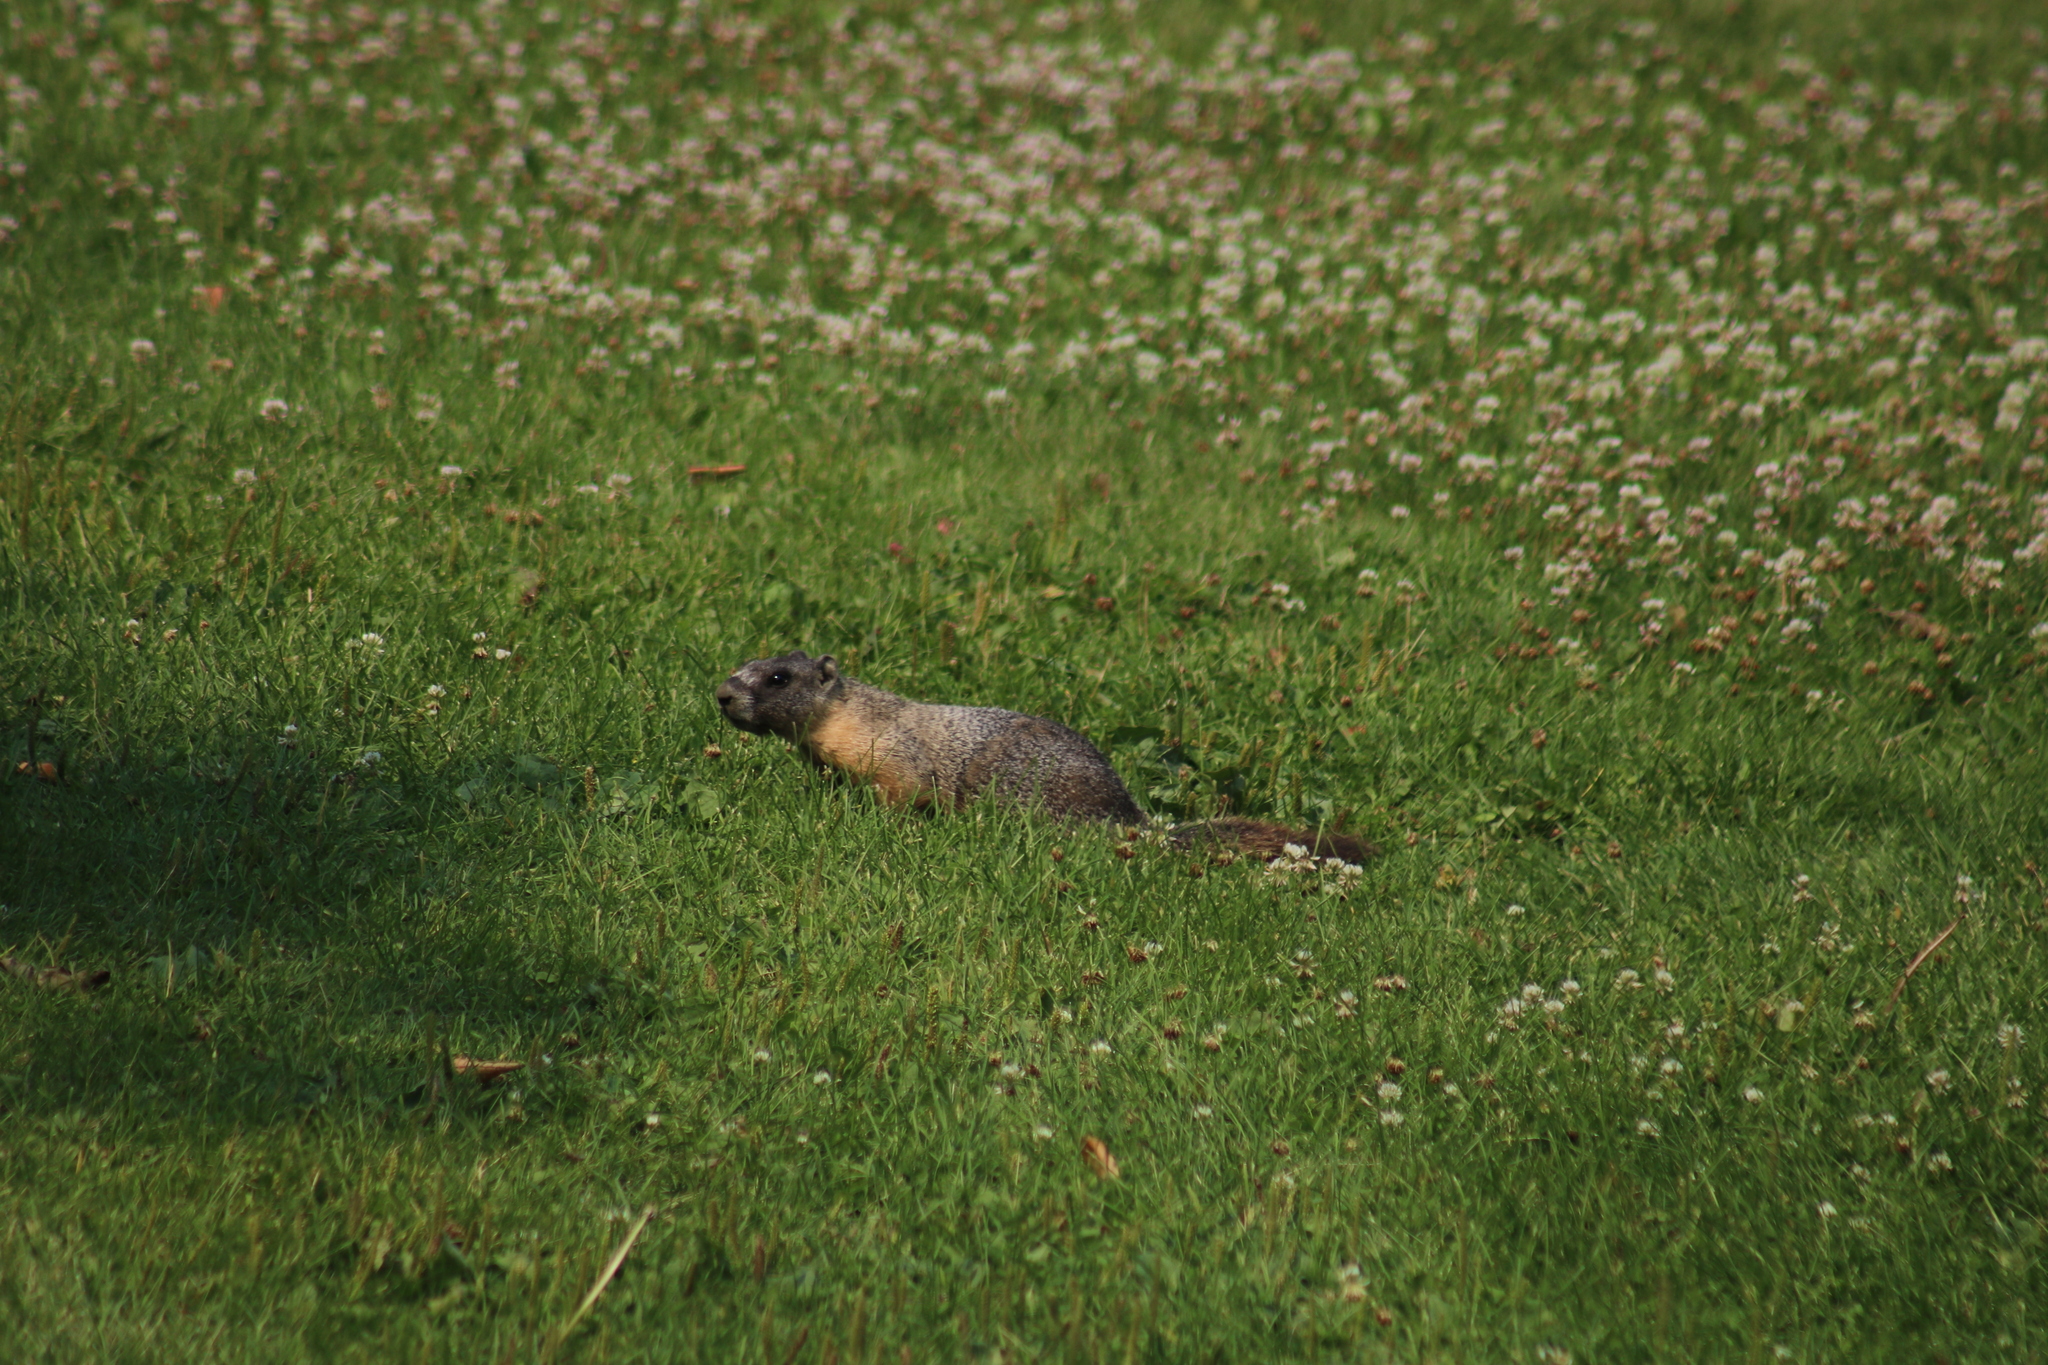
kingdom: Animalia
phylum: Chordata
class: Mammalia
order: Rodentia
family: Sciuridae
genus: Marmota
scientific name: Marmota flaviventris
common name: Yellow-bellied marmot
